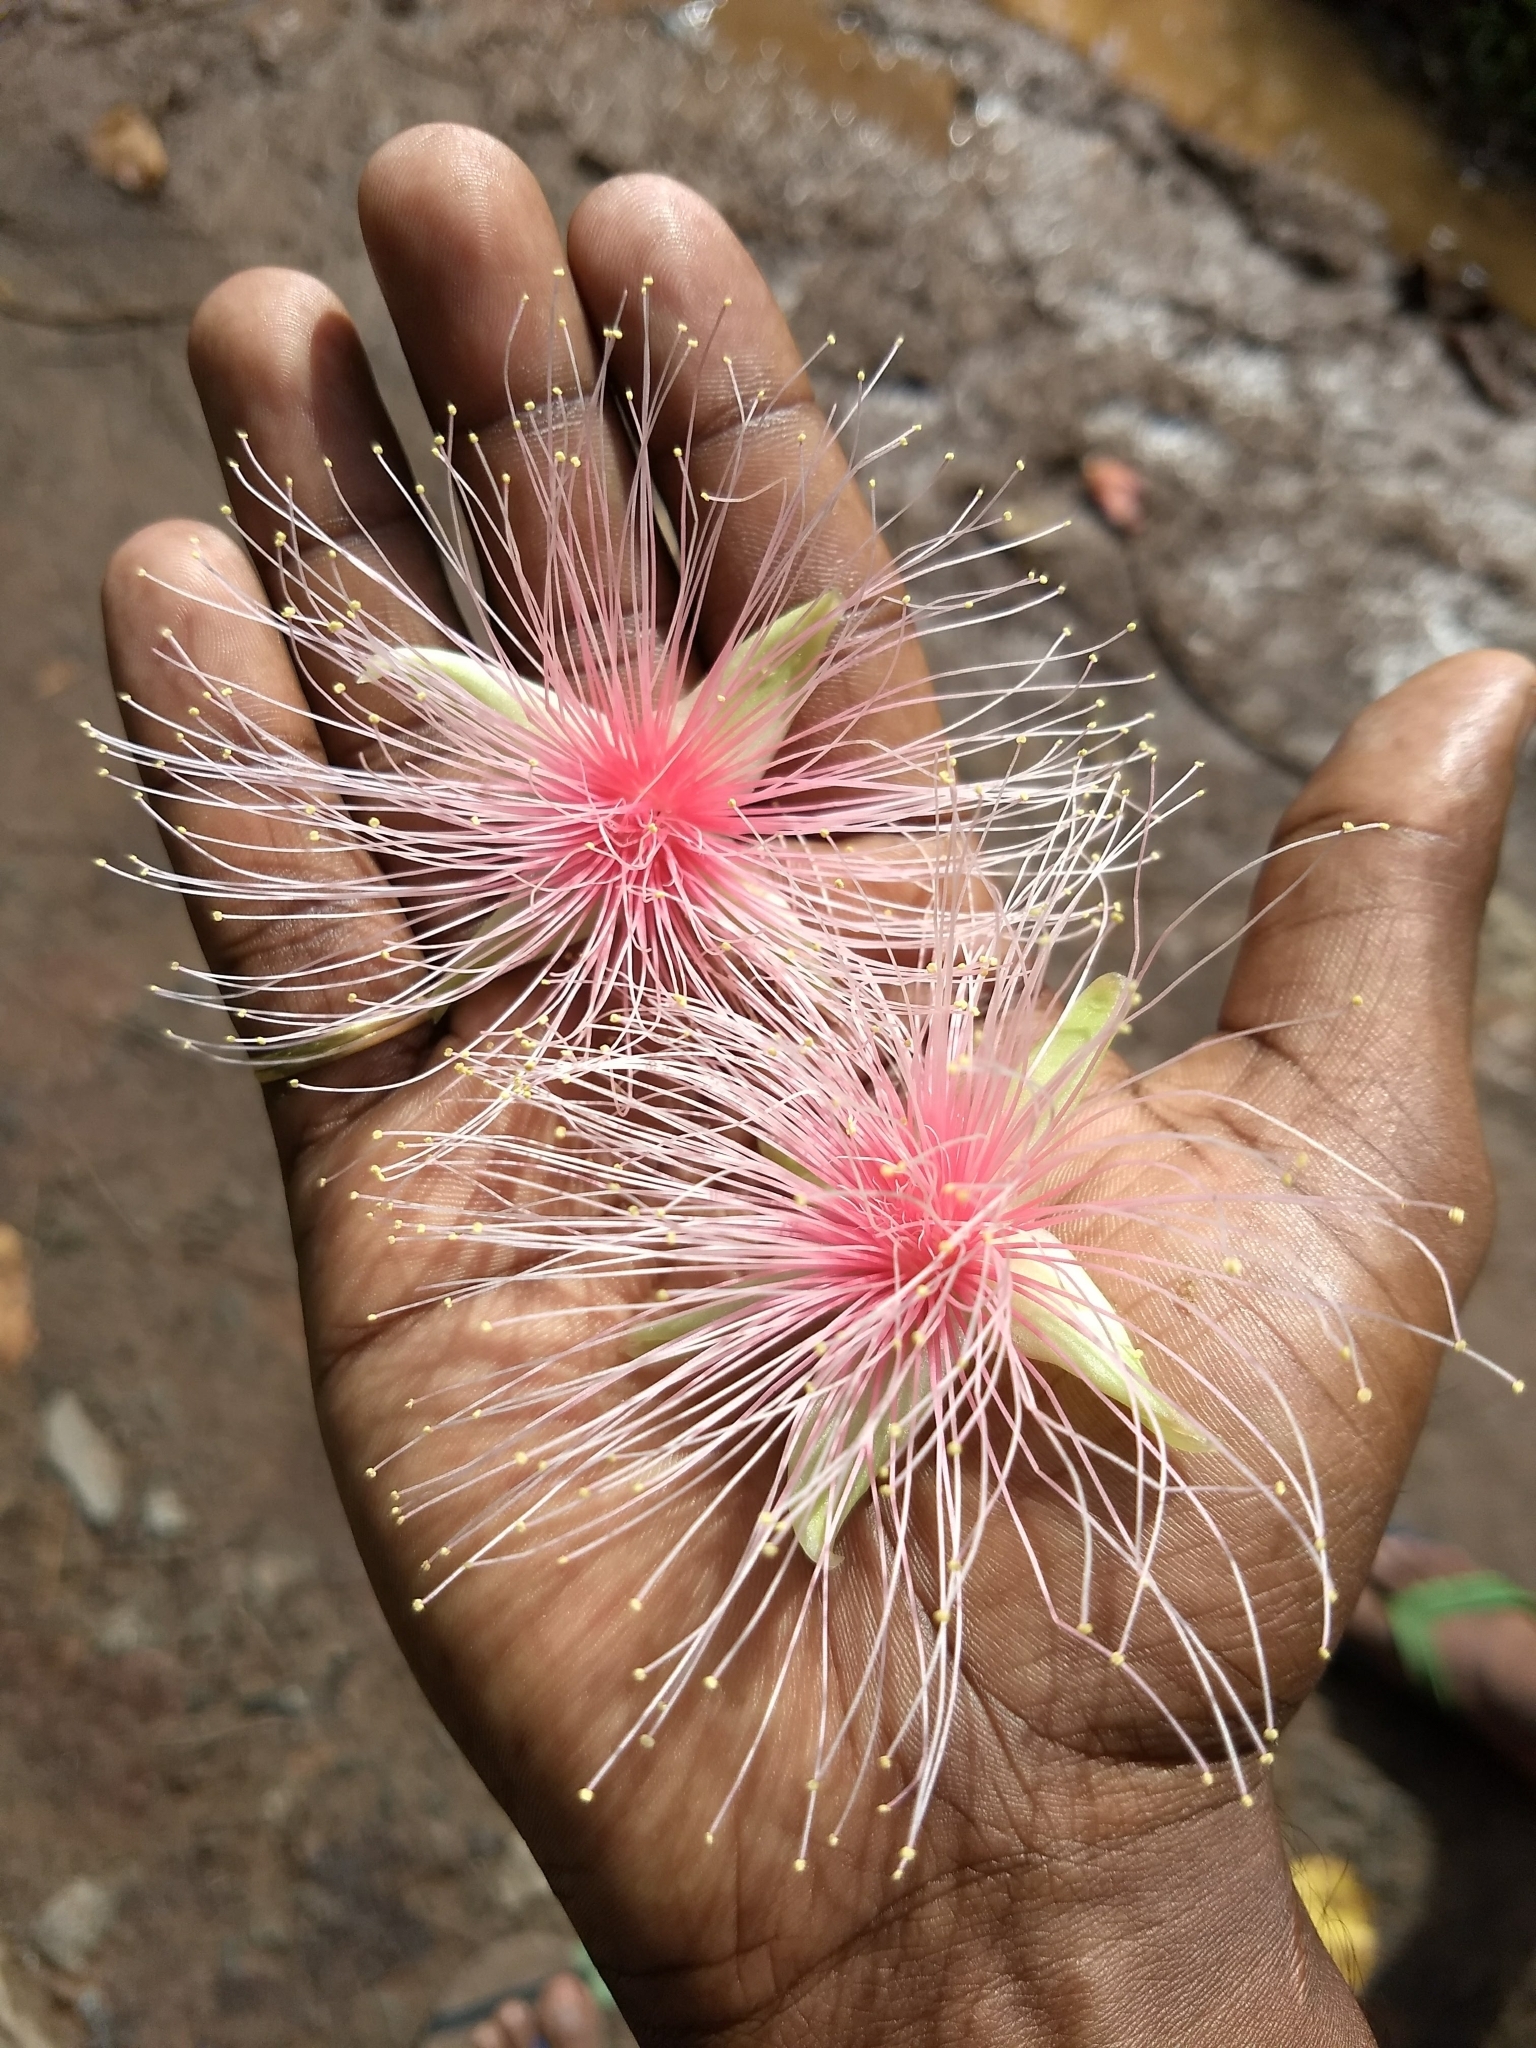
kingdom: Plantae
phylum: Tracheophyta
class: Magnoliopsida
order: Ericales
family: Lecythidaceae
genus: Barringtonia
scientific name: Barringtonia racemosa
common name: Brackwater mangrove
